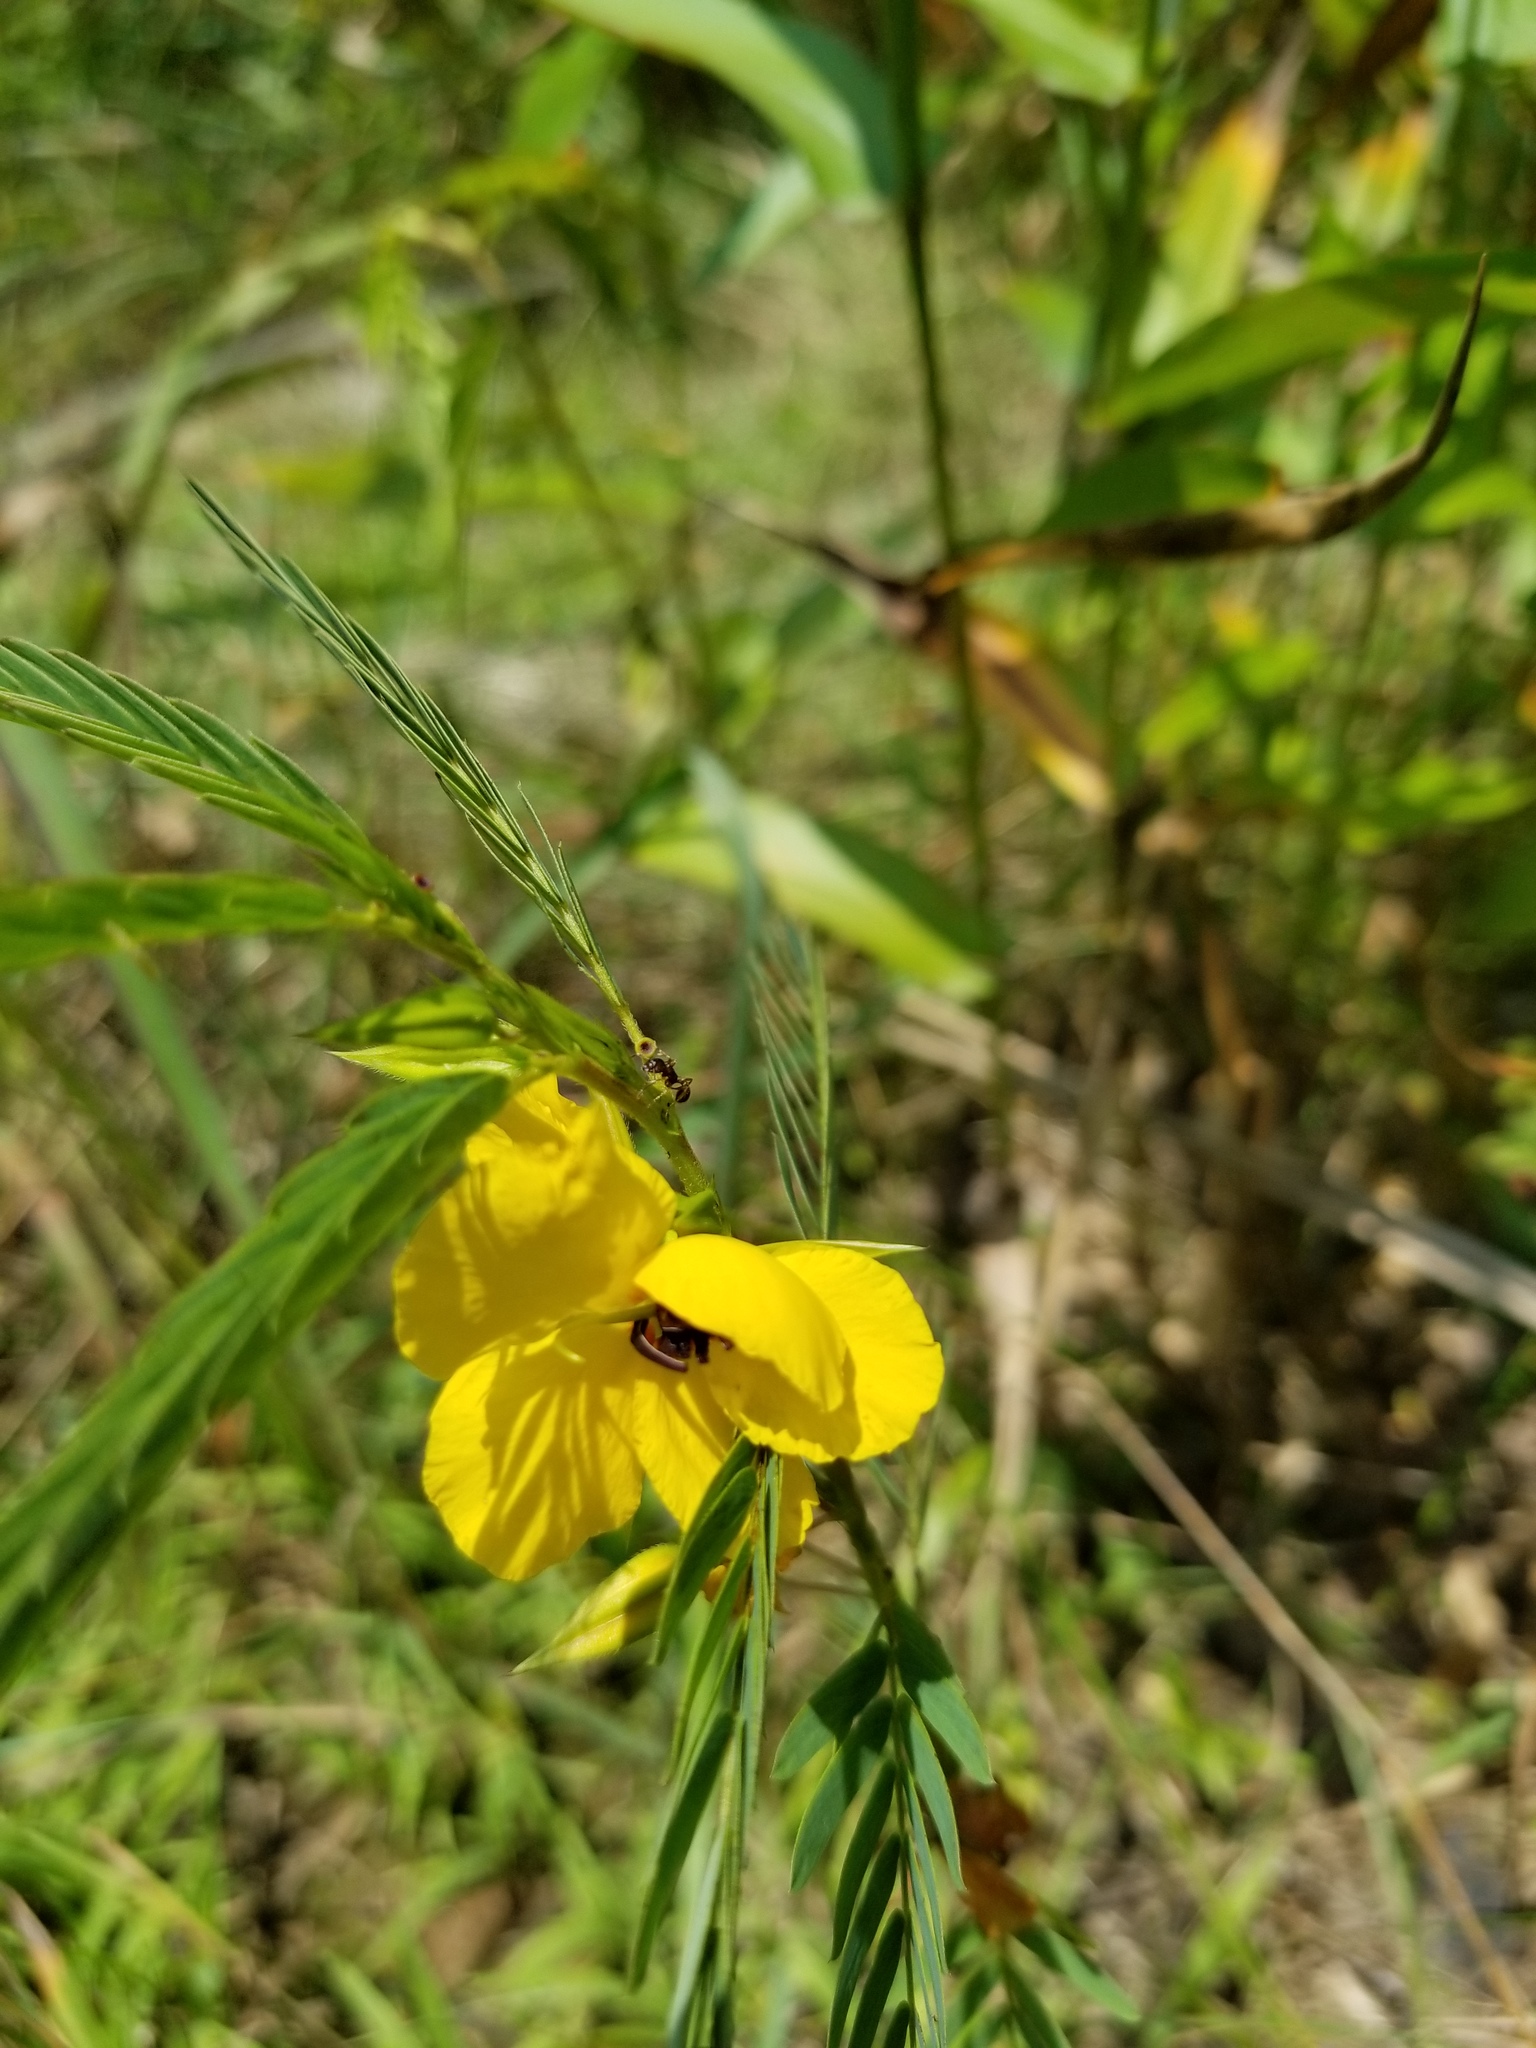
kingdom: Plantae
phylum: Tracheophyta
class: Magnoliopsida
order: Fabales
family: Fabaceae
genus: Chamaecrista
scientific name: Chamaecrista fasciculata
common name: Golden cassia
